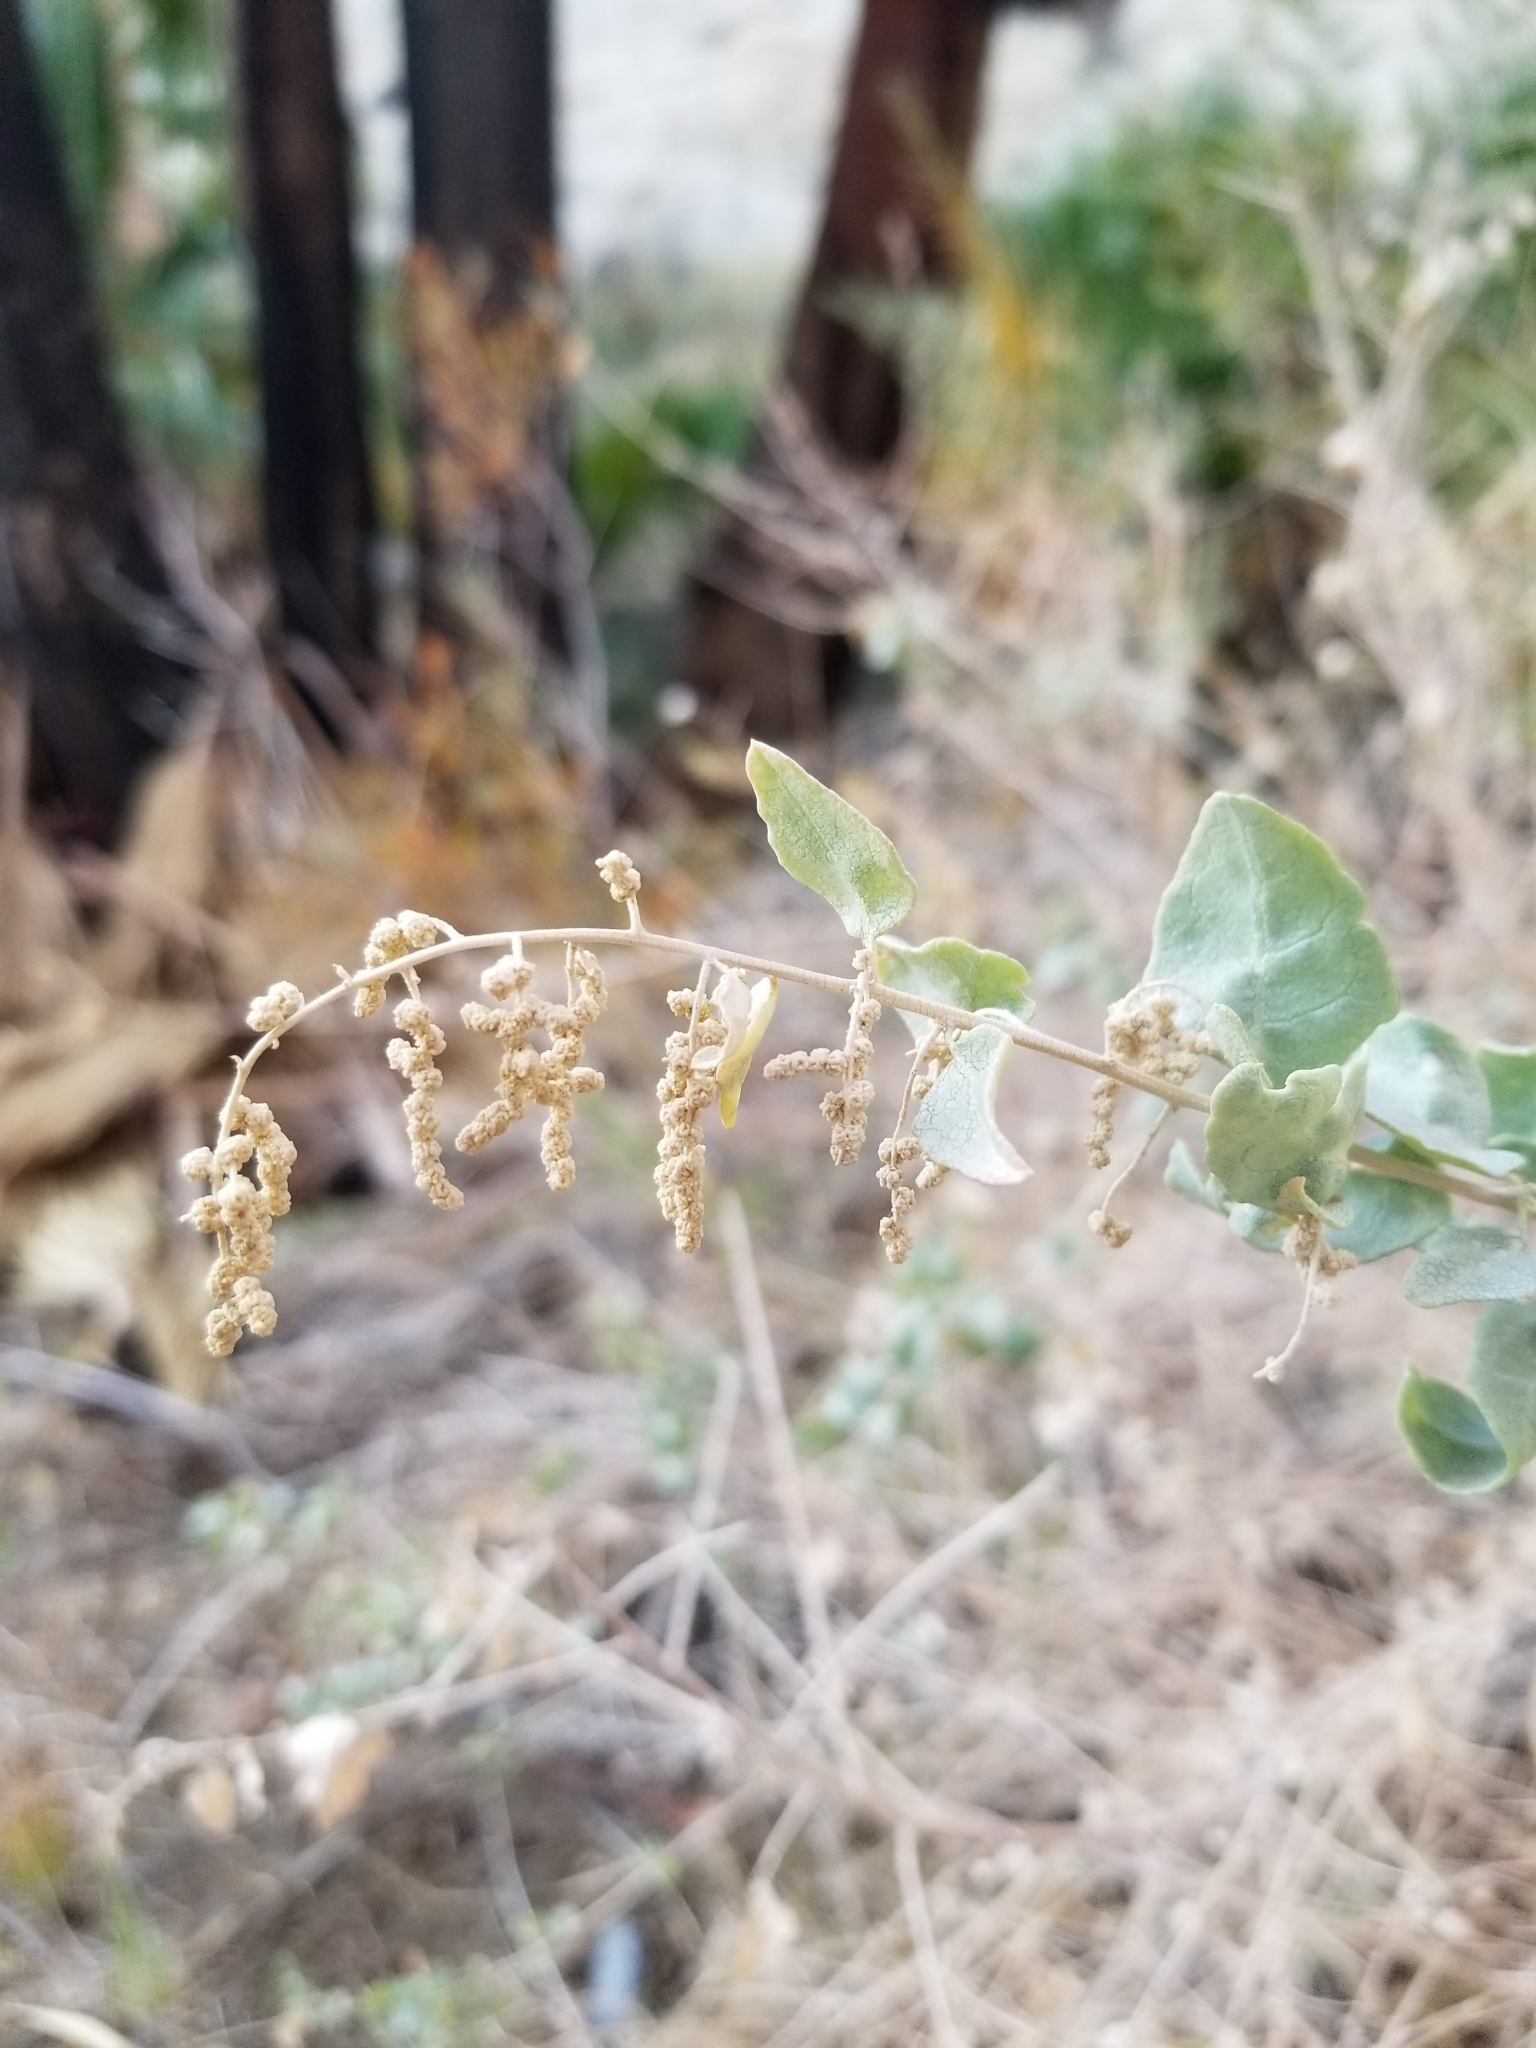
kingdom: Plantae
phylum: Tracheophyta
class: Magnoliopsida
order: Caryophyllales
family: Amaranthaceae
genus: Atriplex
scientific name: Atriplex lentiformis
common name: Big saltbush
